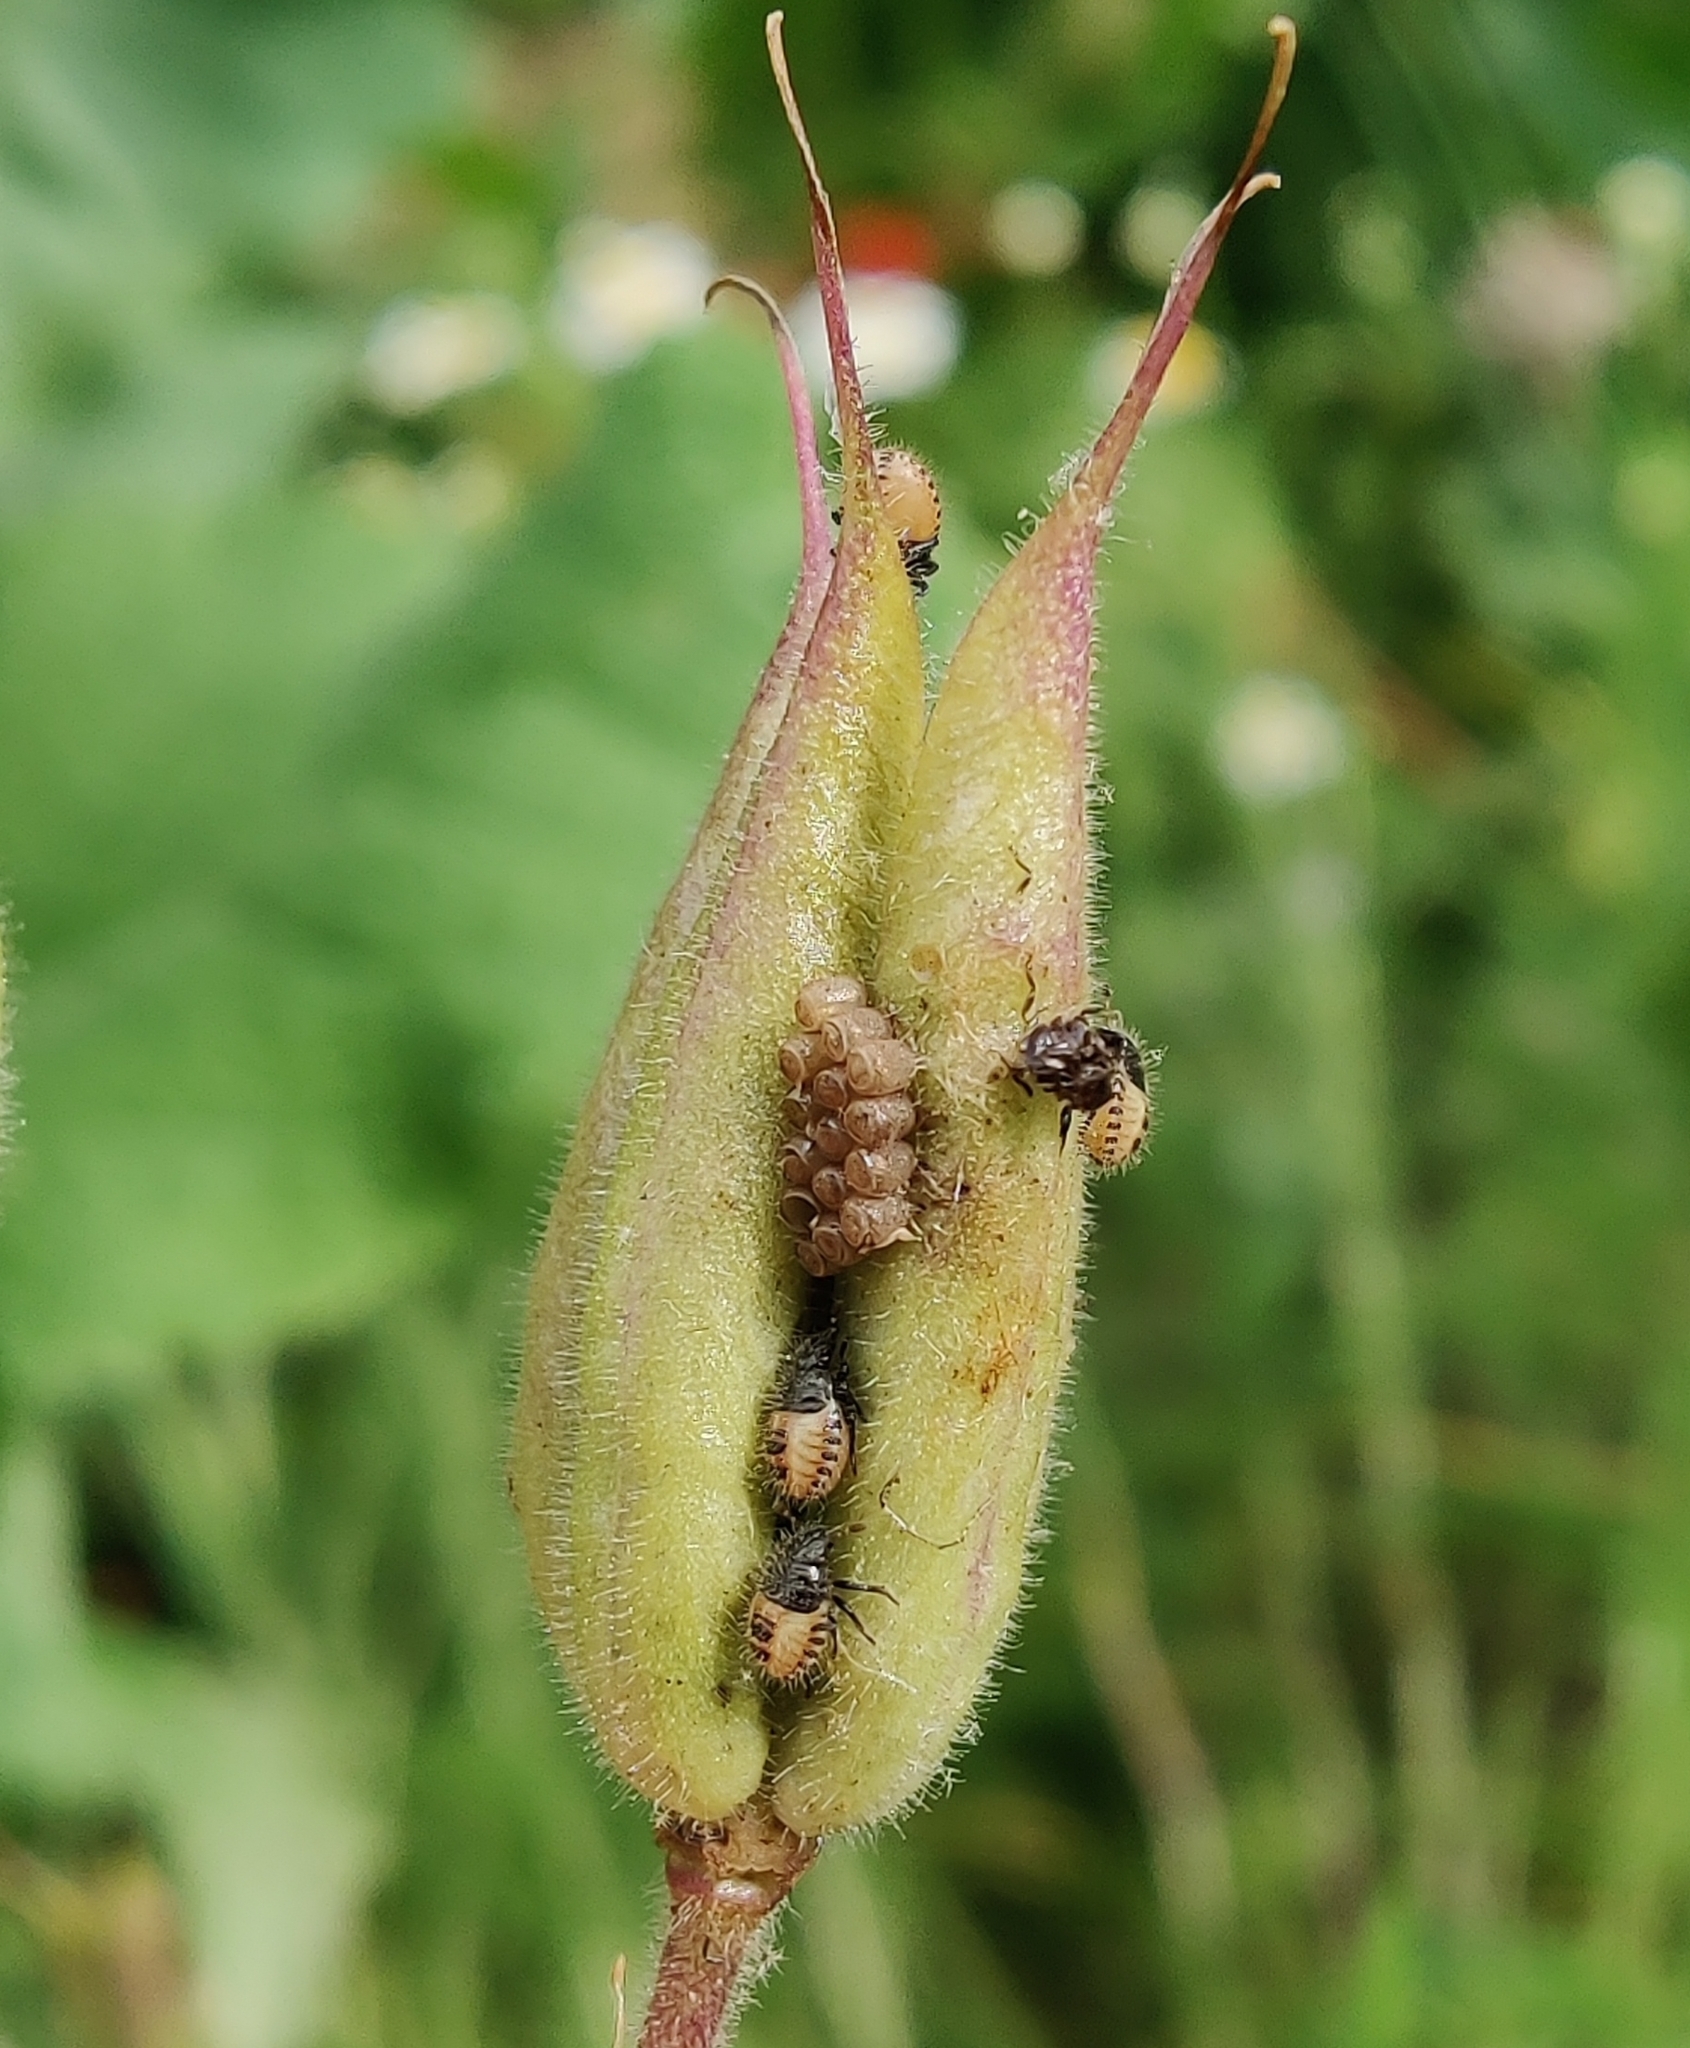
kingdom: Animalia
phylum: Arthropoda
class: Insecta
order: Hemiptera
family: Pentatomidae
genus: Dolycoris
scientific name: Dolycoris baccarum
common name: Sloe bug
